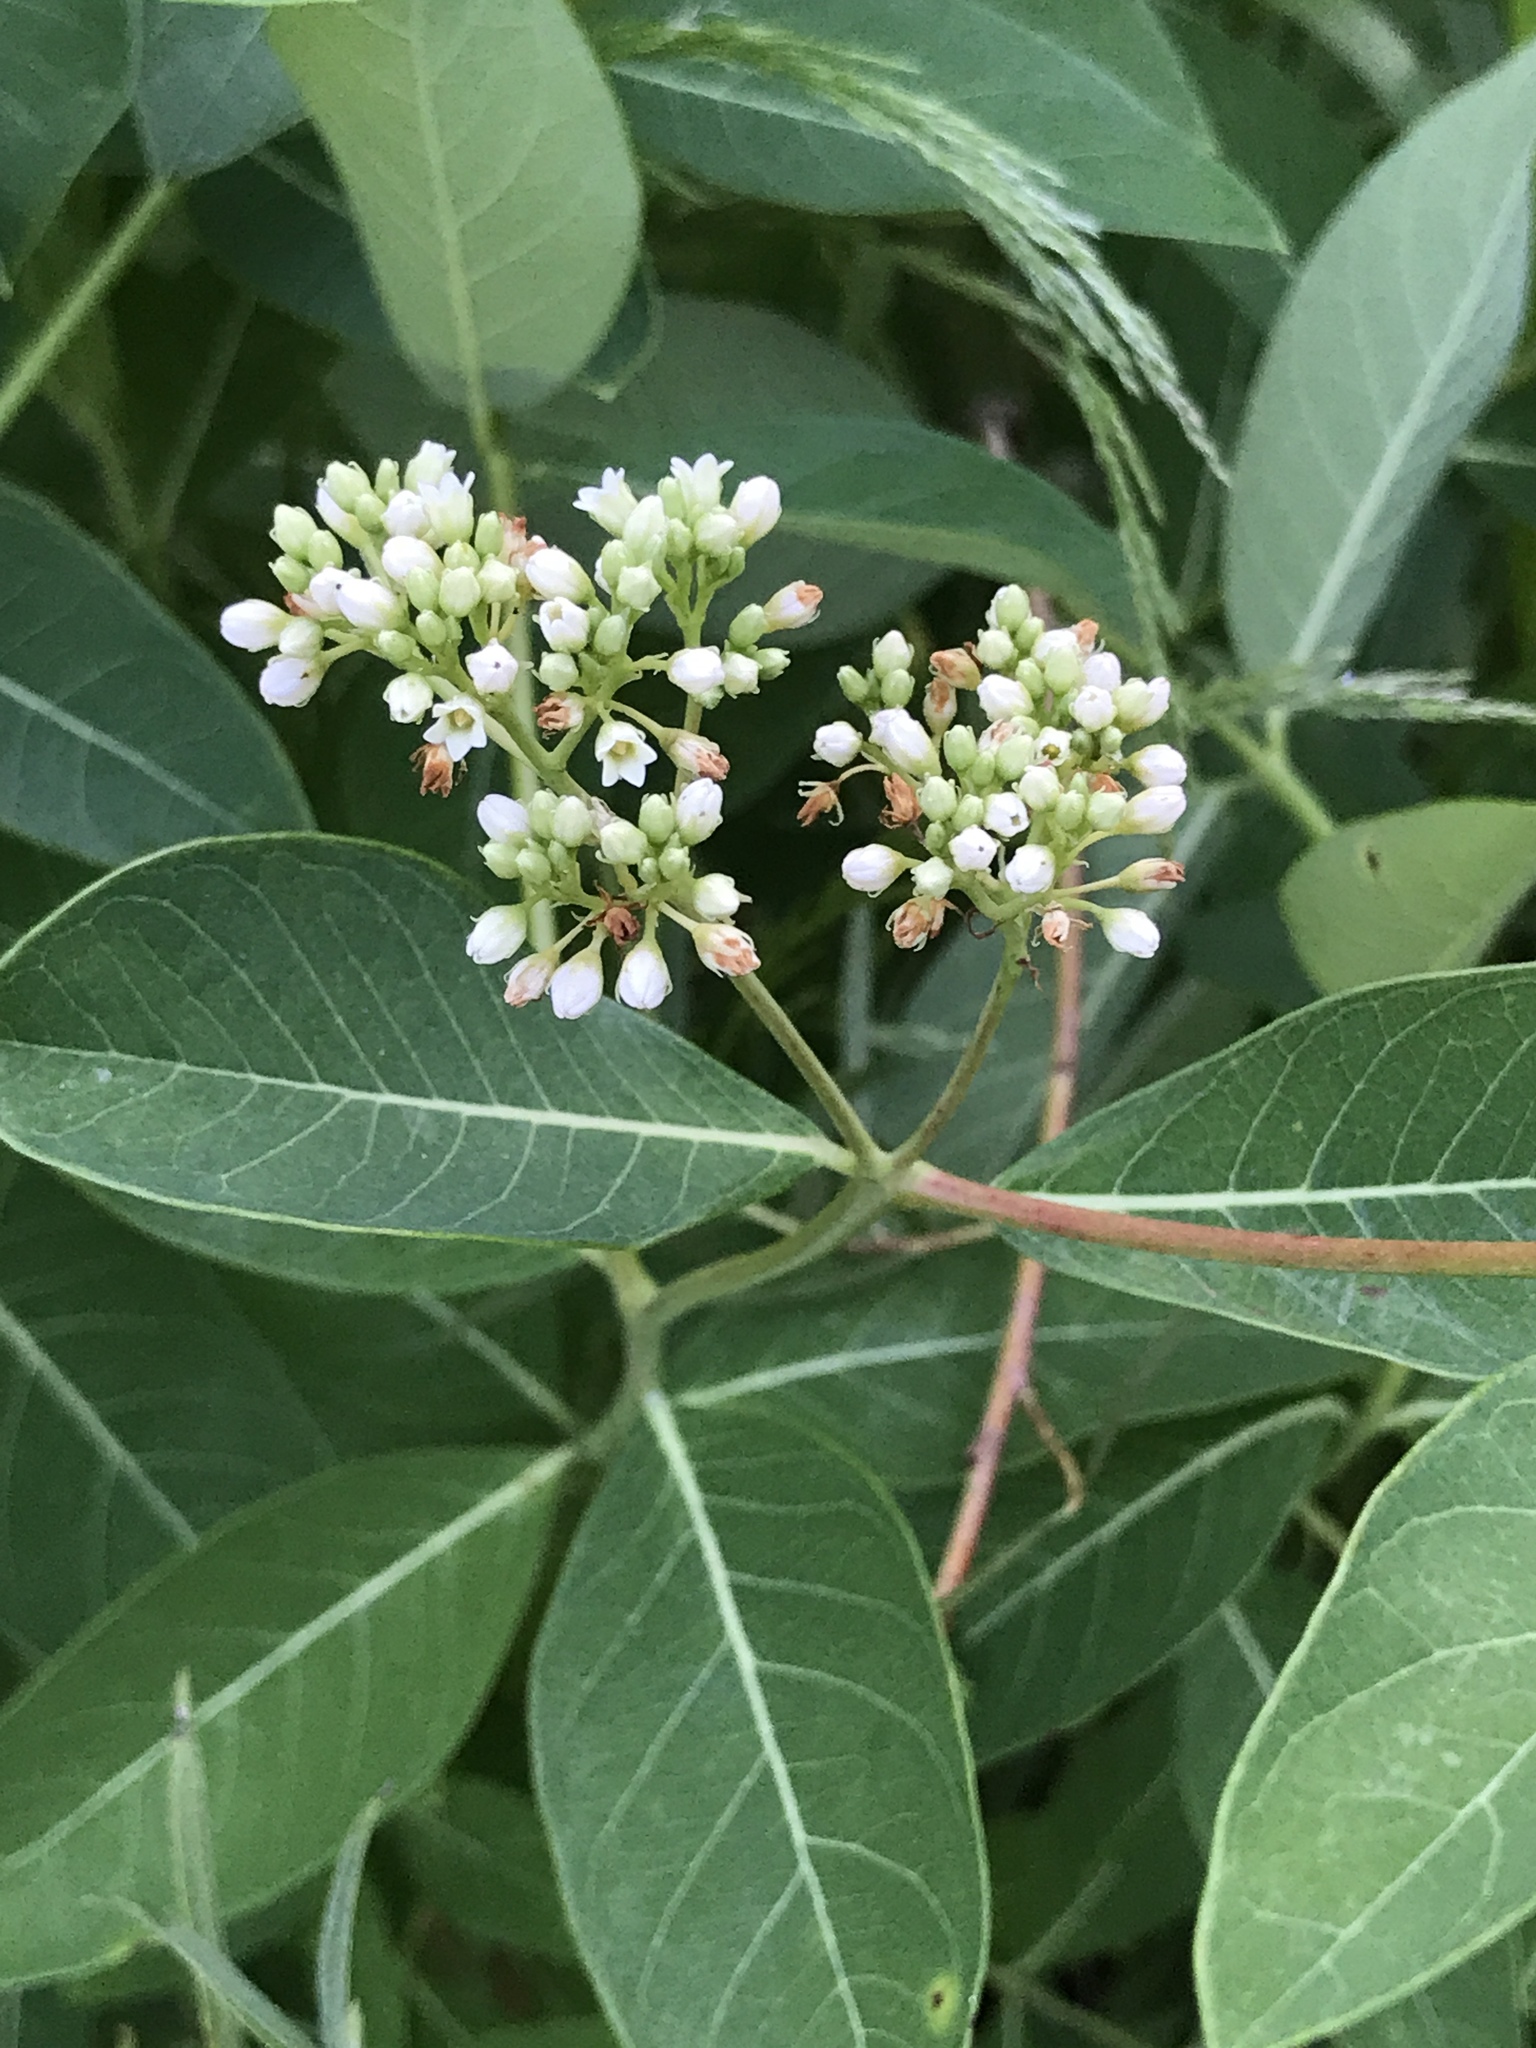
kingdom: Plantae
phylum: Tracheophyta
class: Magnoliopsida
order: Gentianales
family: Apocynaceae
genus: Apocynum
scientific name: Apocynum cannabinum
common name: Hemp dogbane
